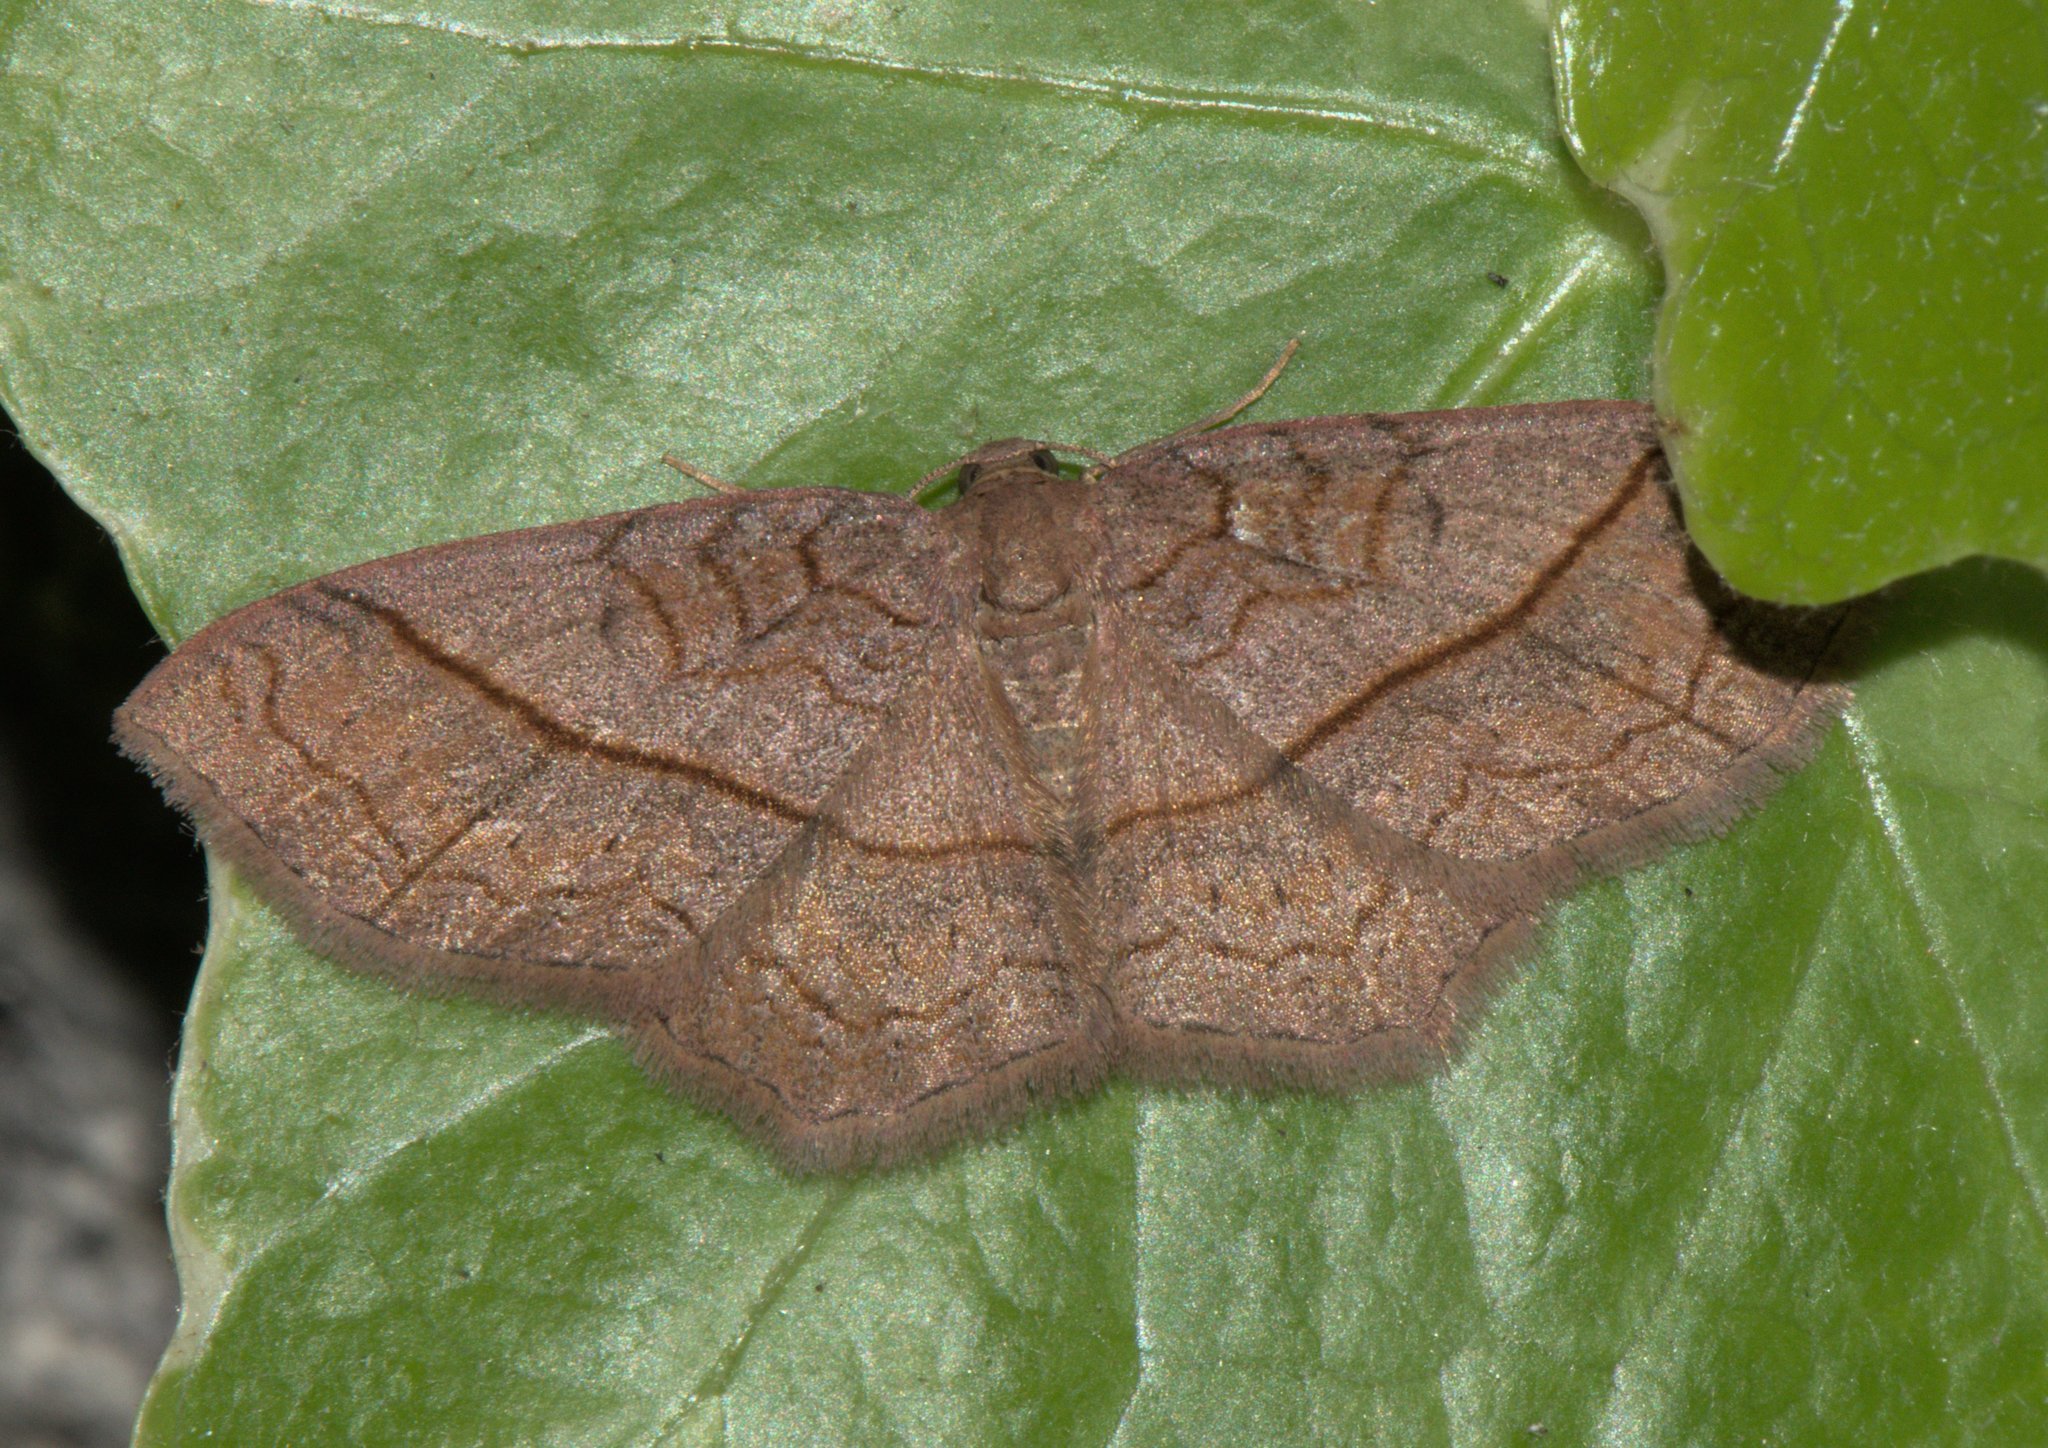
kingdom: Animalia
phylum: Arthropoda
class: Insecta
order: Lepidoptera
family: Geometridae
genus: Hydrelia
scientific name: Hydrelia sericea
